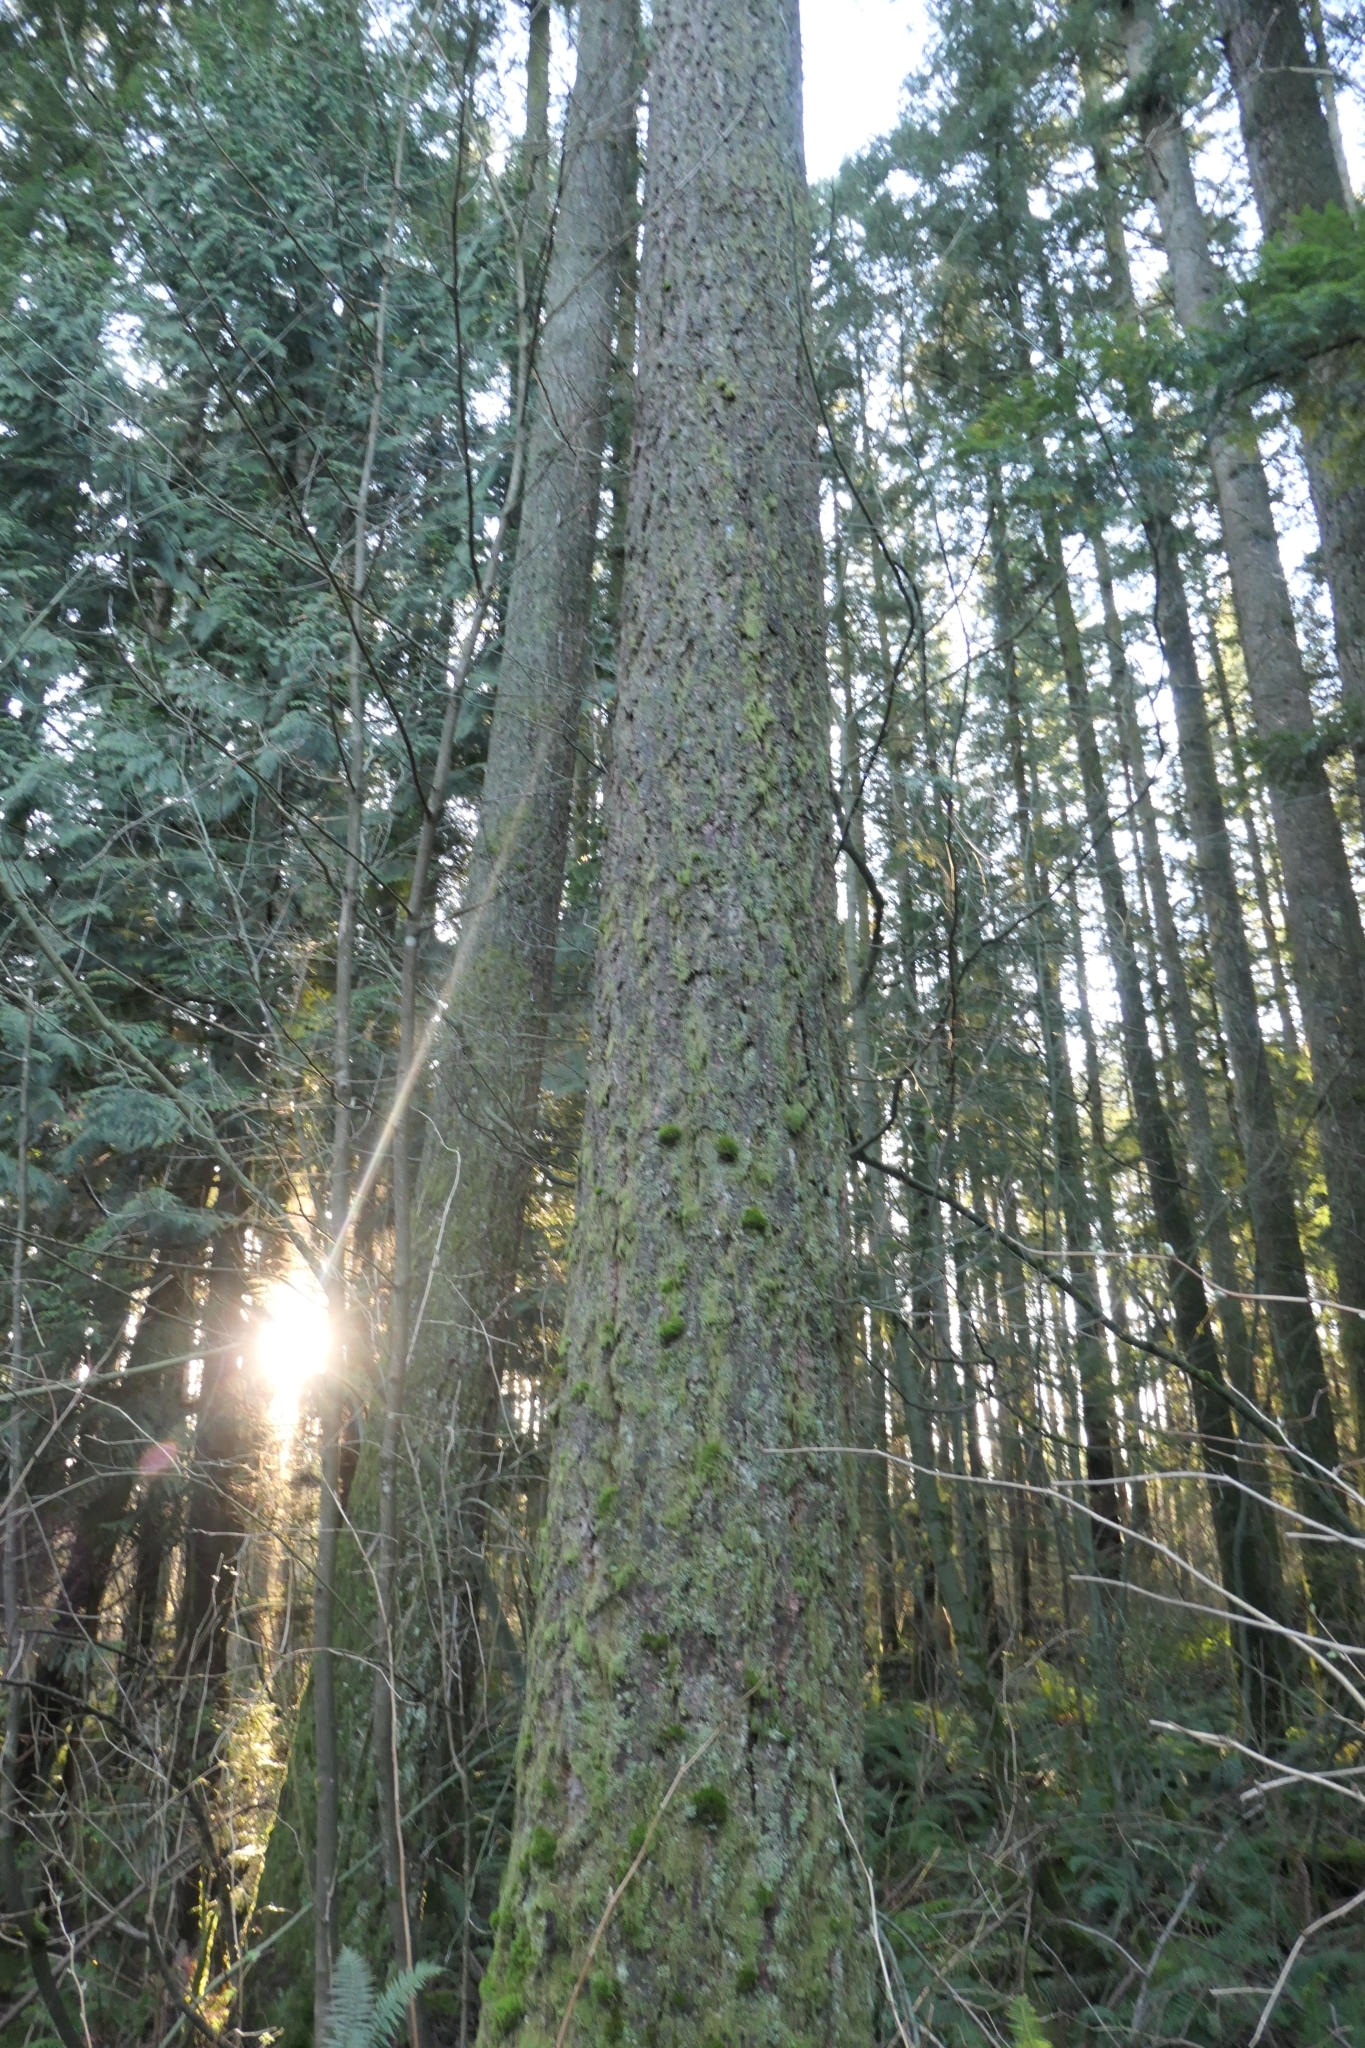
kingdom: Plantae
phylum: Tracheophyta
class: Pinopsida
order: Pinales
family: Pinaceae
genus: Tsuga
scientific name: Tsuga heterophylla
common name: Western hemlock
